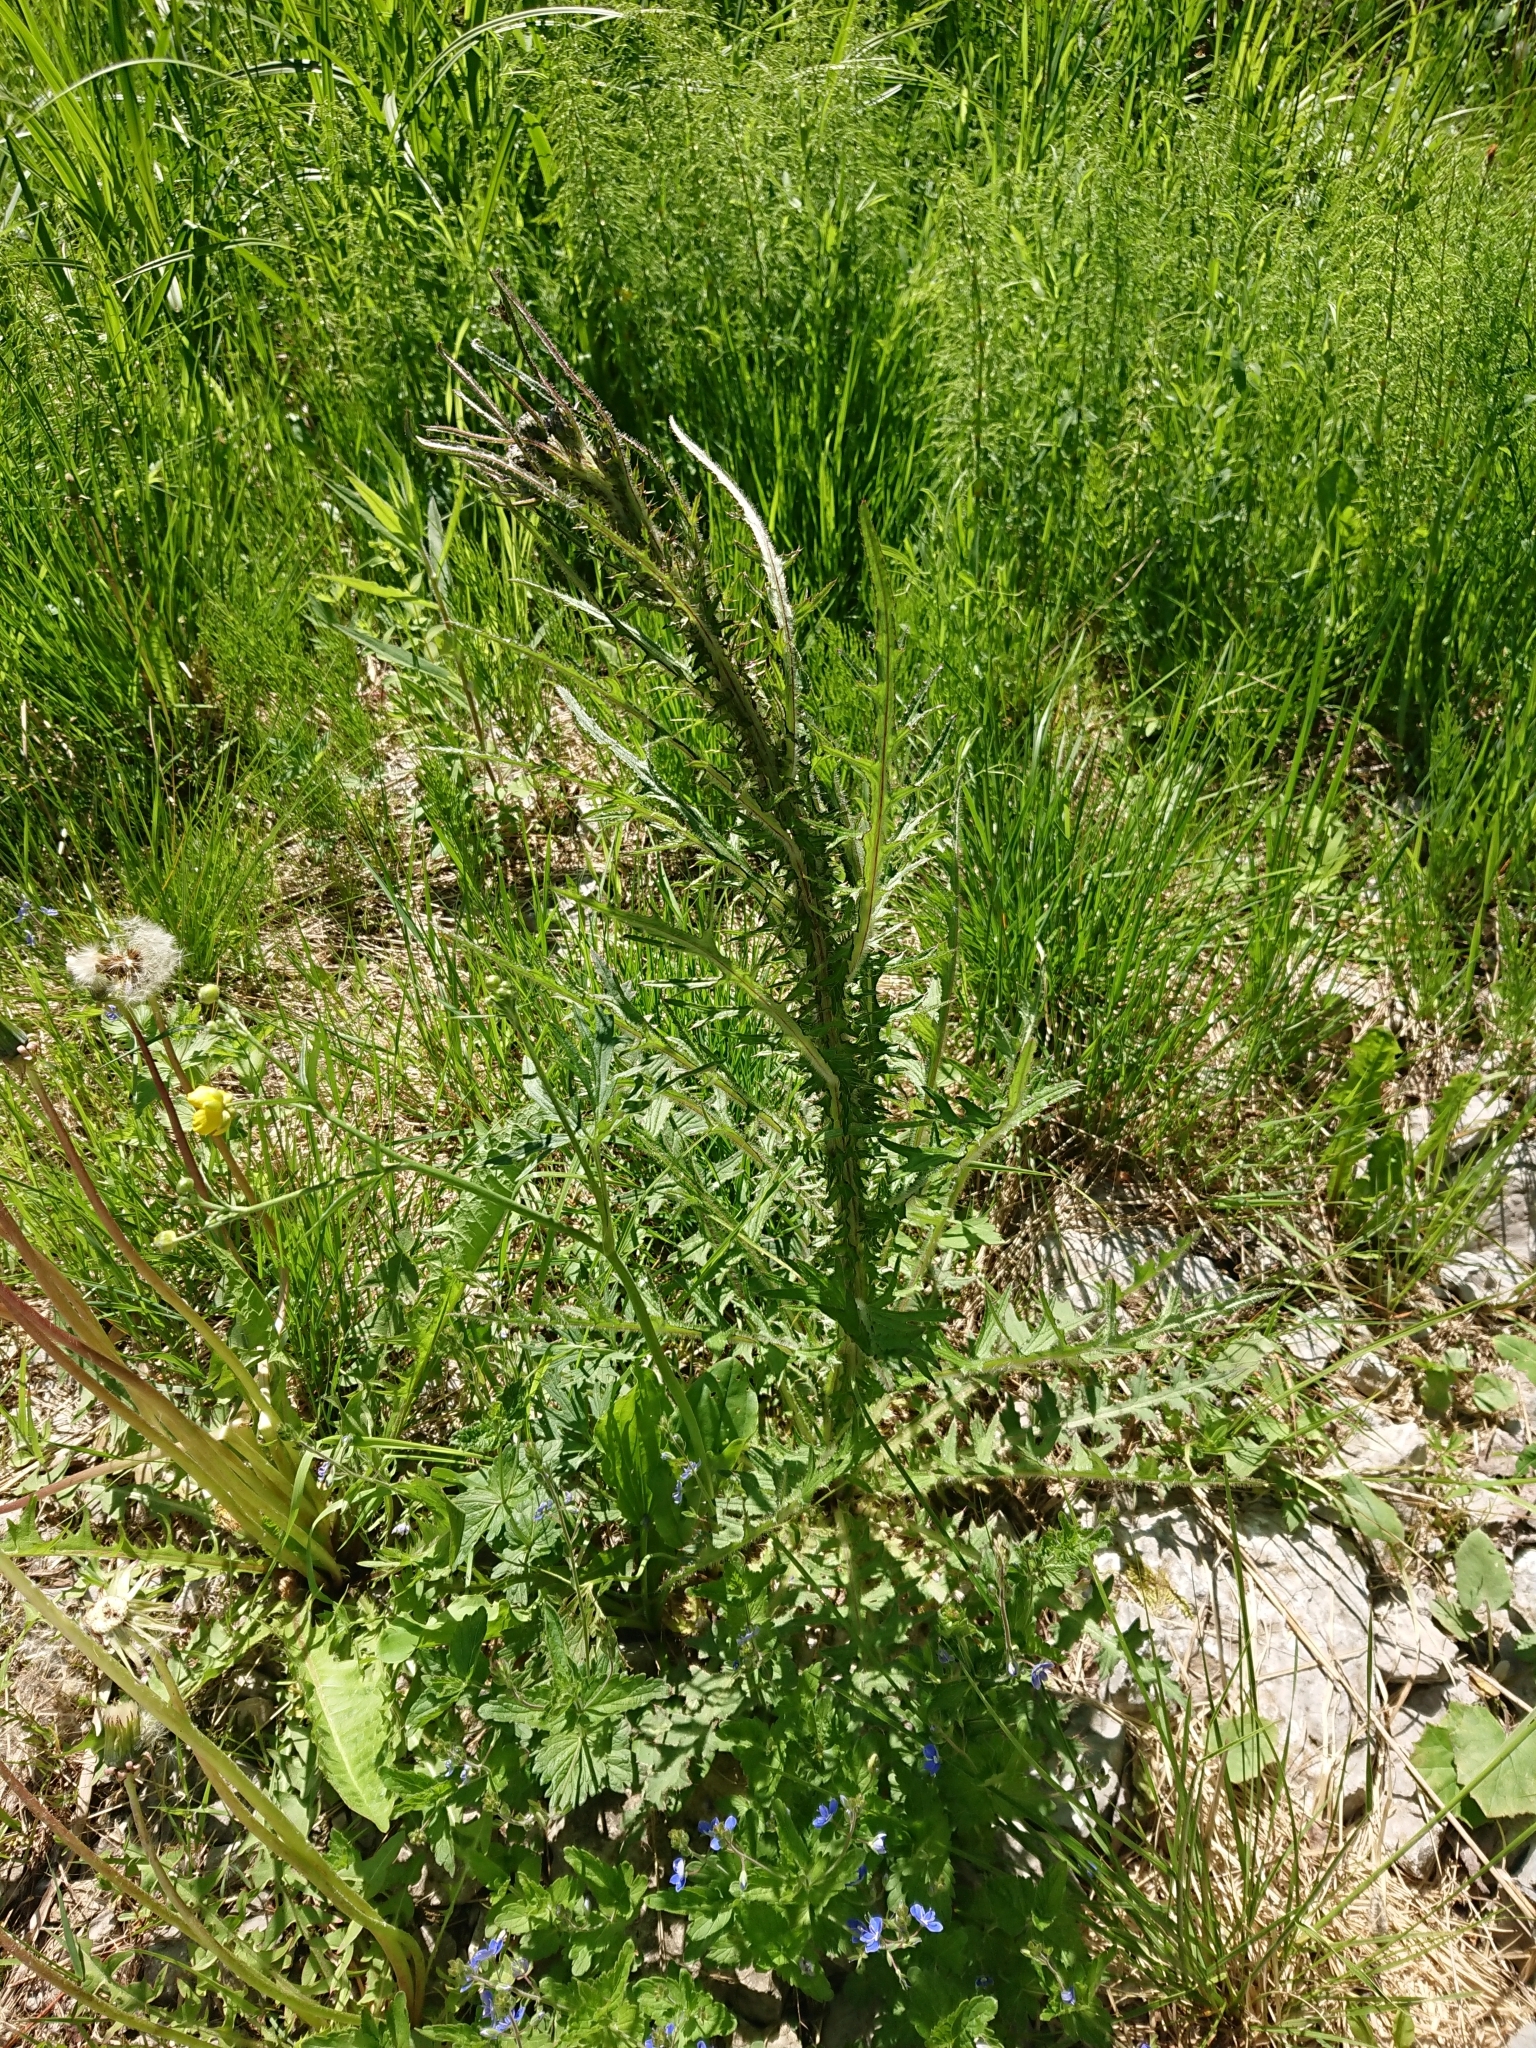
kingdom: Plantae
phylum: Tracheophyta
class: Magnoliopsida
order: Asterales
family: Asteraceae
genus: Cirsium
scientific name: Cirsium palustre
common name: Marsh thistle
